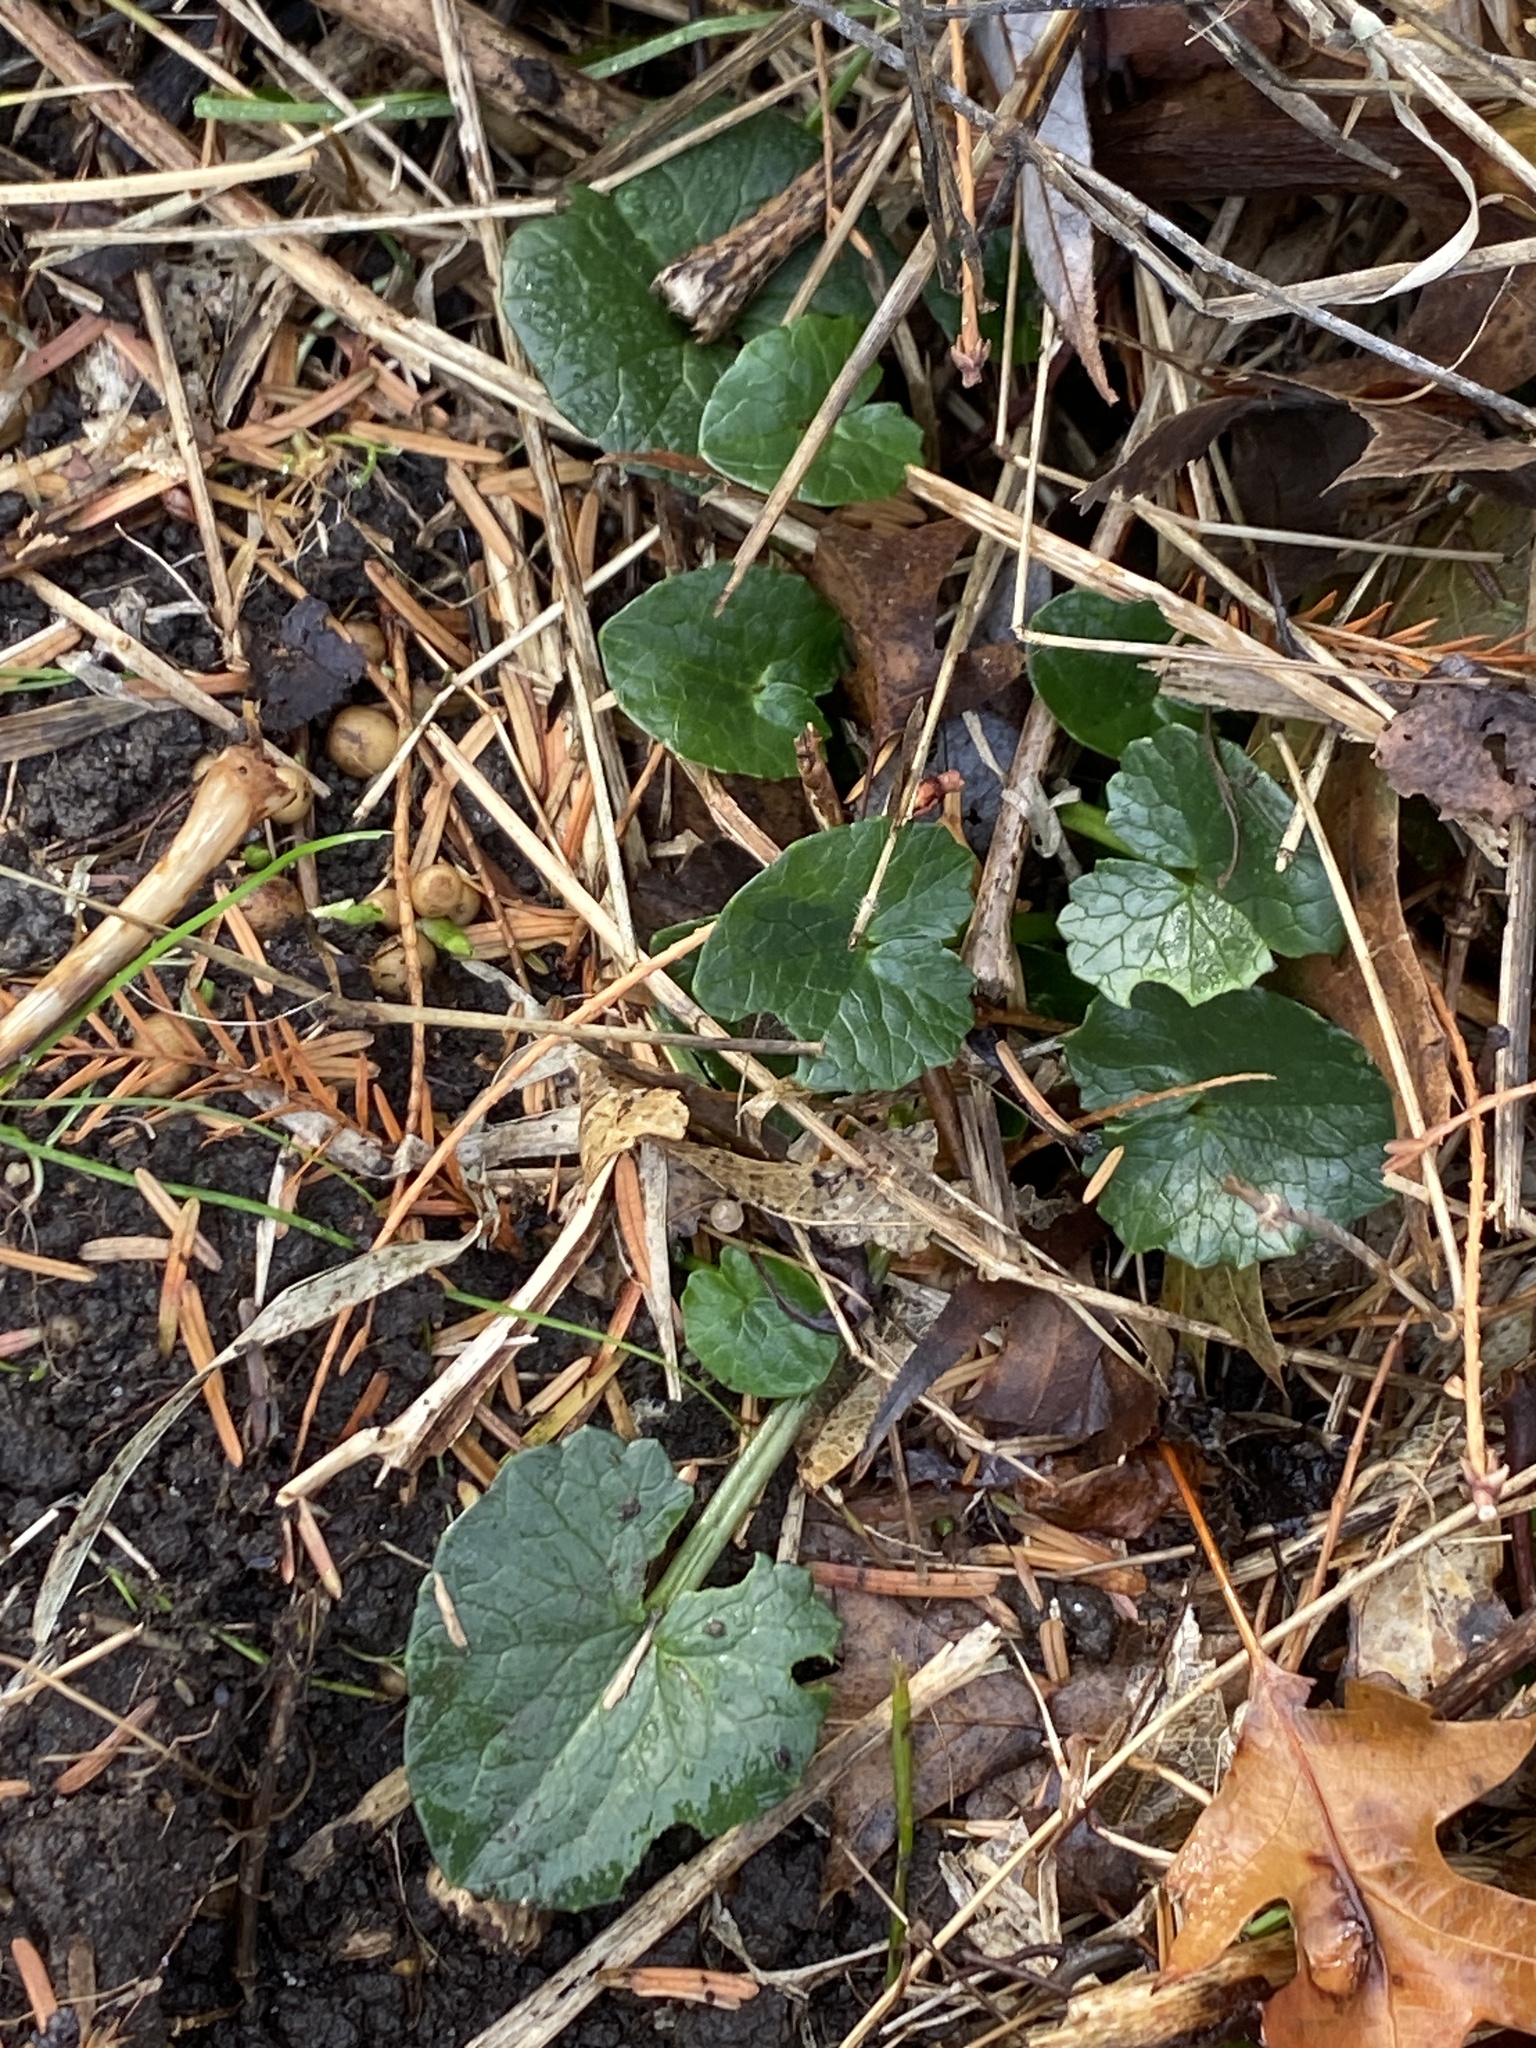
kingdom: Plantae
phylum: Tracheophyta
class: Magnoliopsida
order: Ranunculales
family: Ranunculaceae
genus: Ficaria
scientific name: Ficaria verna
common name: Lesser celandine
